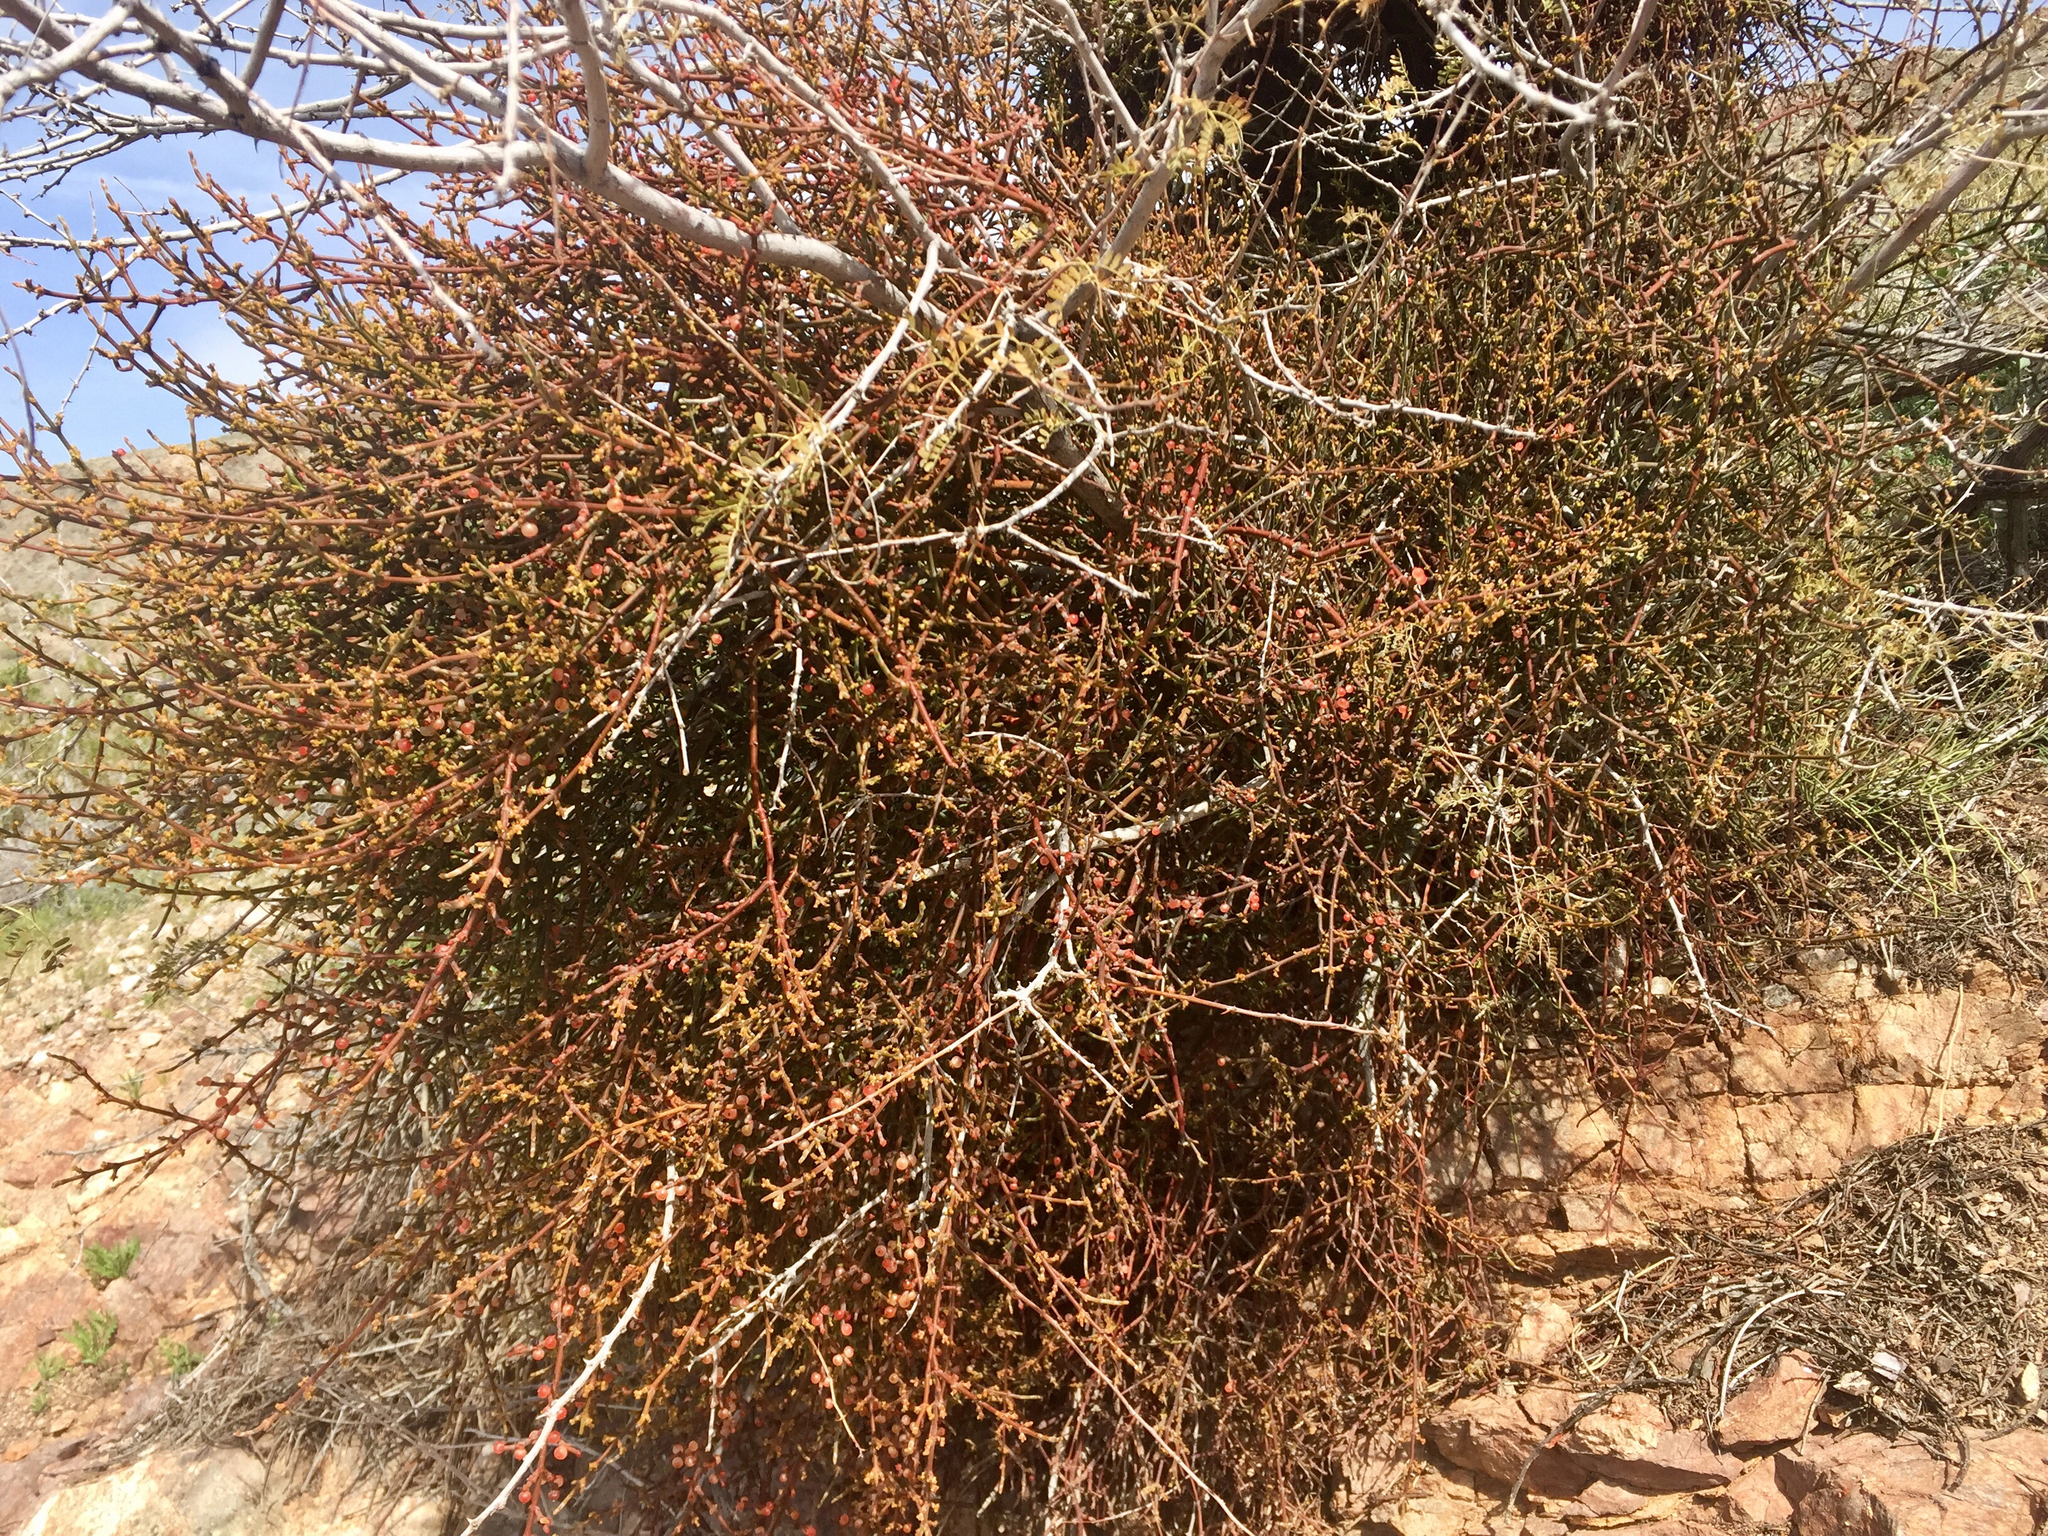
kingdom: Plantae
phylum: Tracheophyta
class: Magnoliopsida
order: Santalales
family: Viscaceae
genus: Phoradendron
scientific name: Phoradendron californicum
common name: Acacia mistletoe
